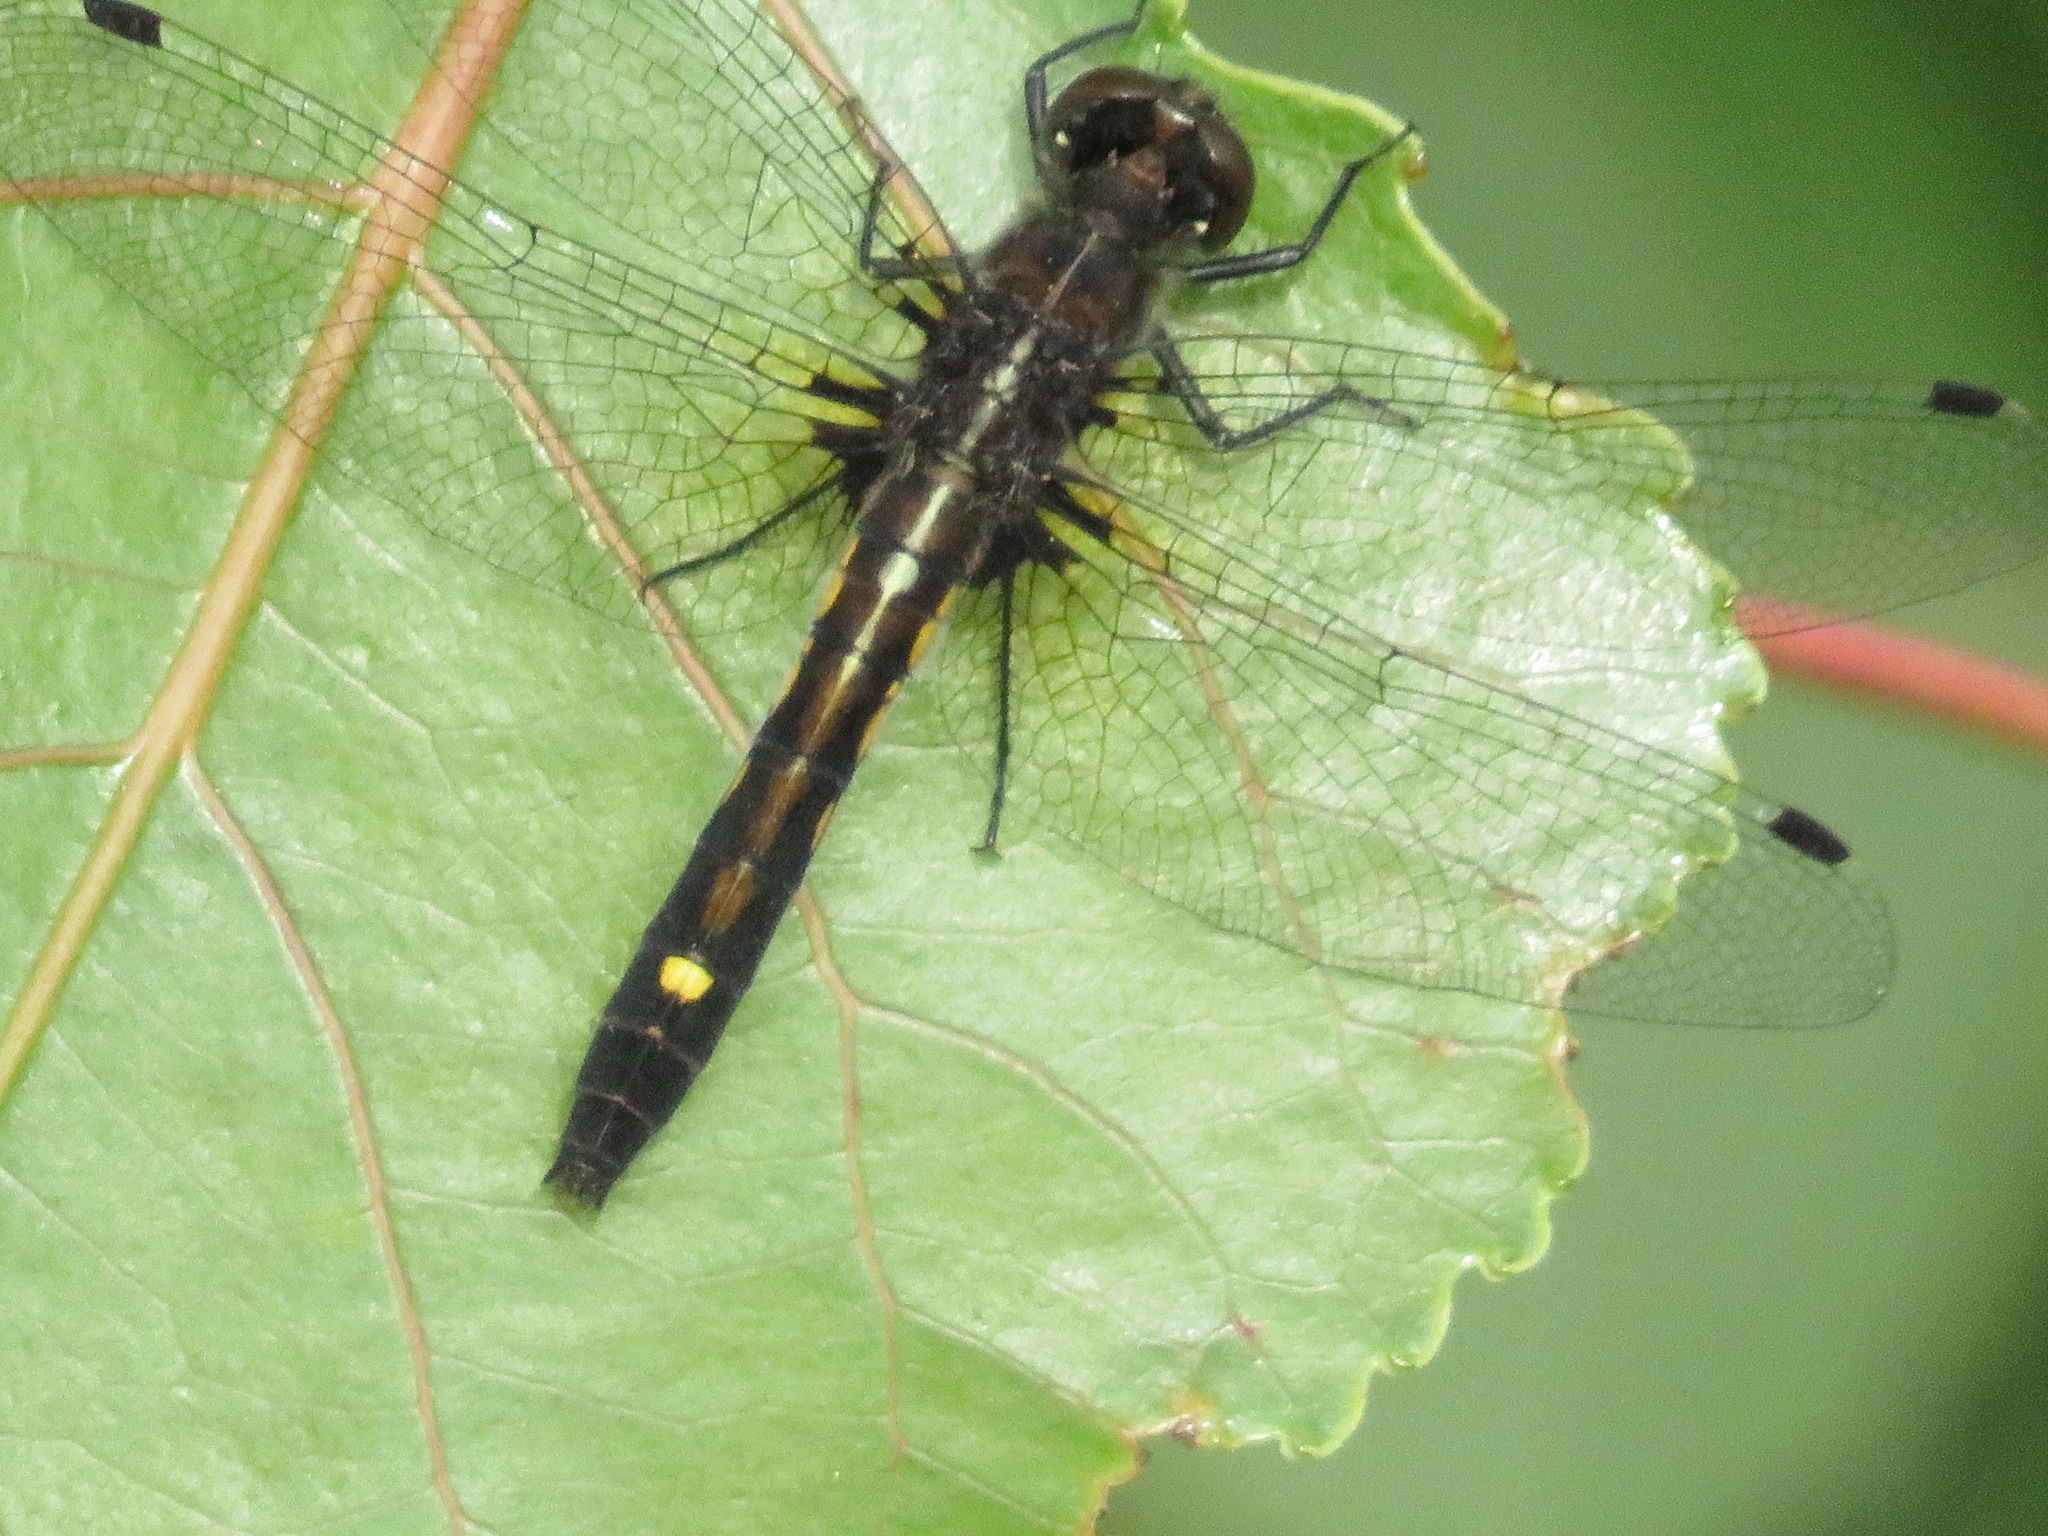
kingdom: Animalia
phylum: Arthropoda
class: Insecta
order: Odonata
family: Libellulidae
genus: Leucorrhinia
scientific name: Leucorrhinia intacta
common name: Dot-tailed whiteface
